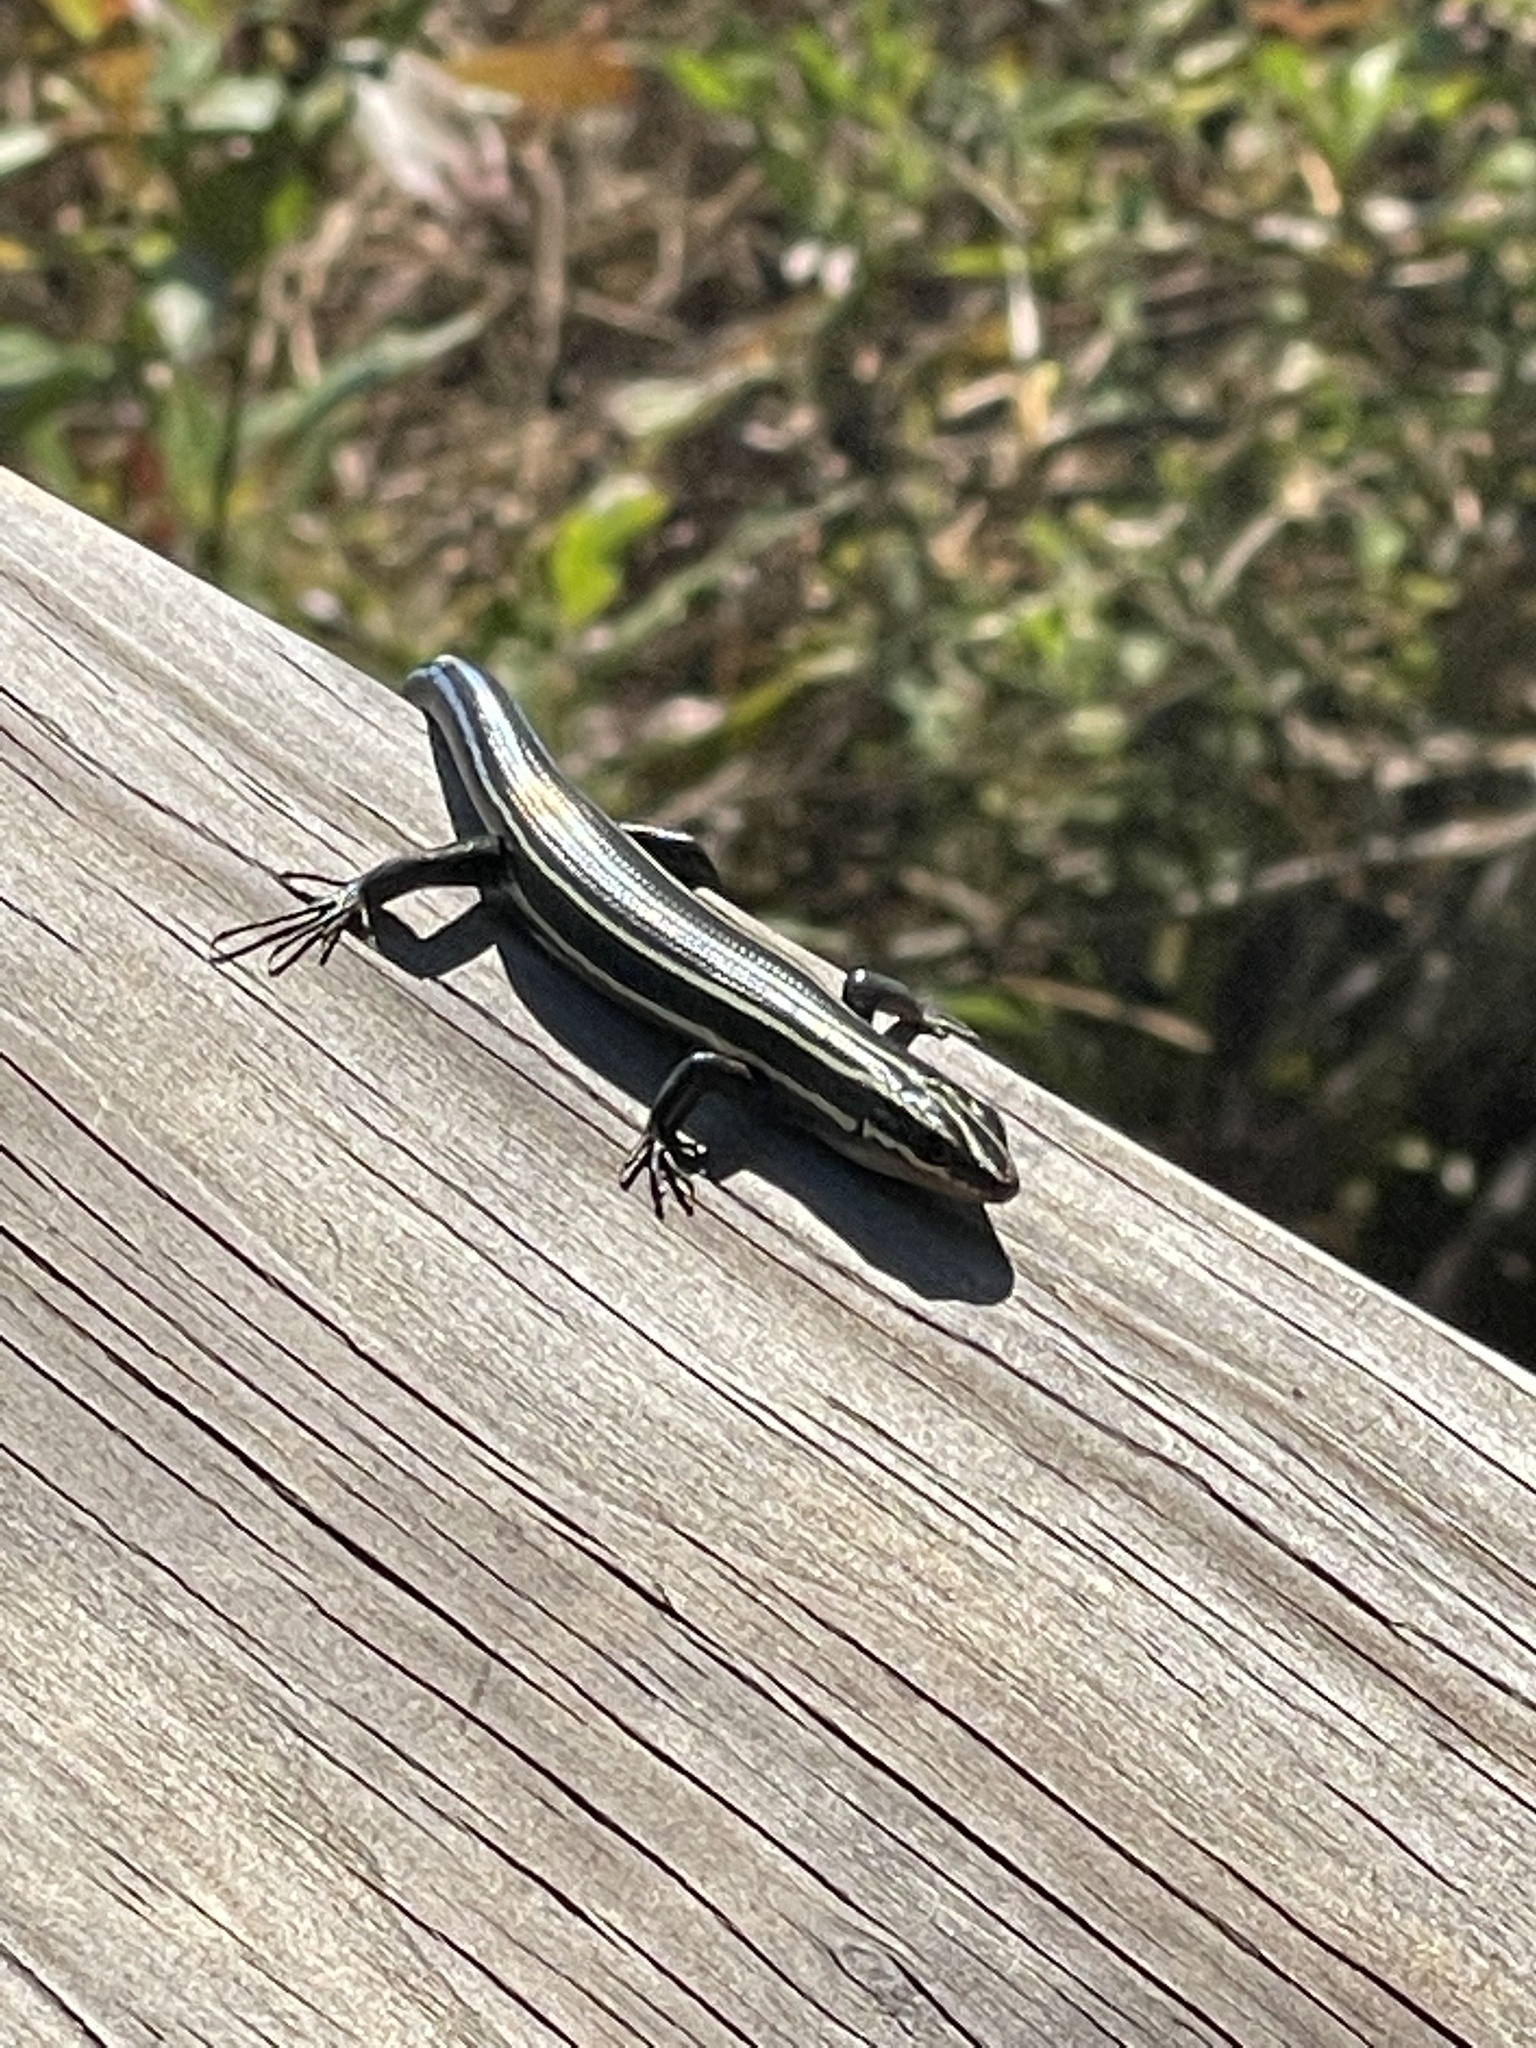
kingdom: Animalia
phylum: Chordata
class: Squamata
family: Scincidae
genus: Plestiodon
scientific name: Plestiodon fasciatus
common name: Five-lined skink
